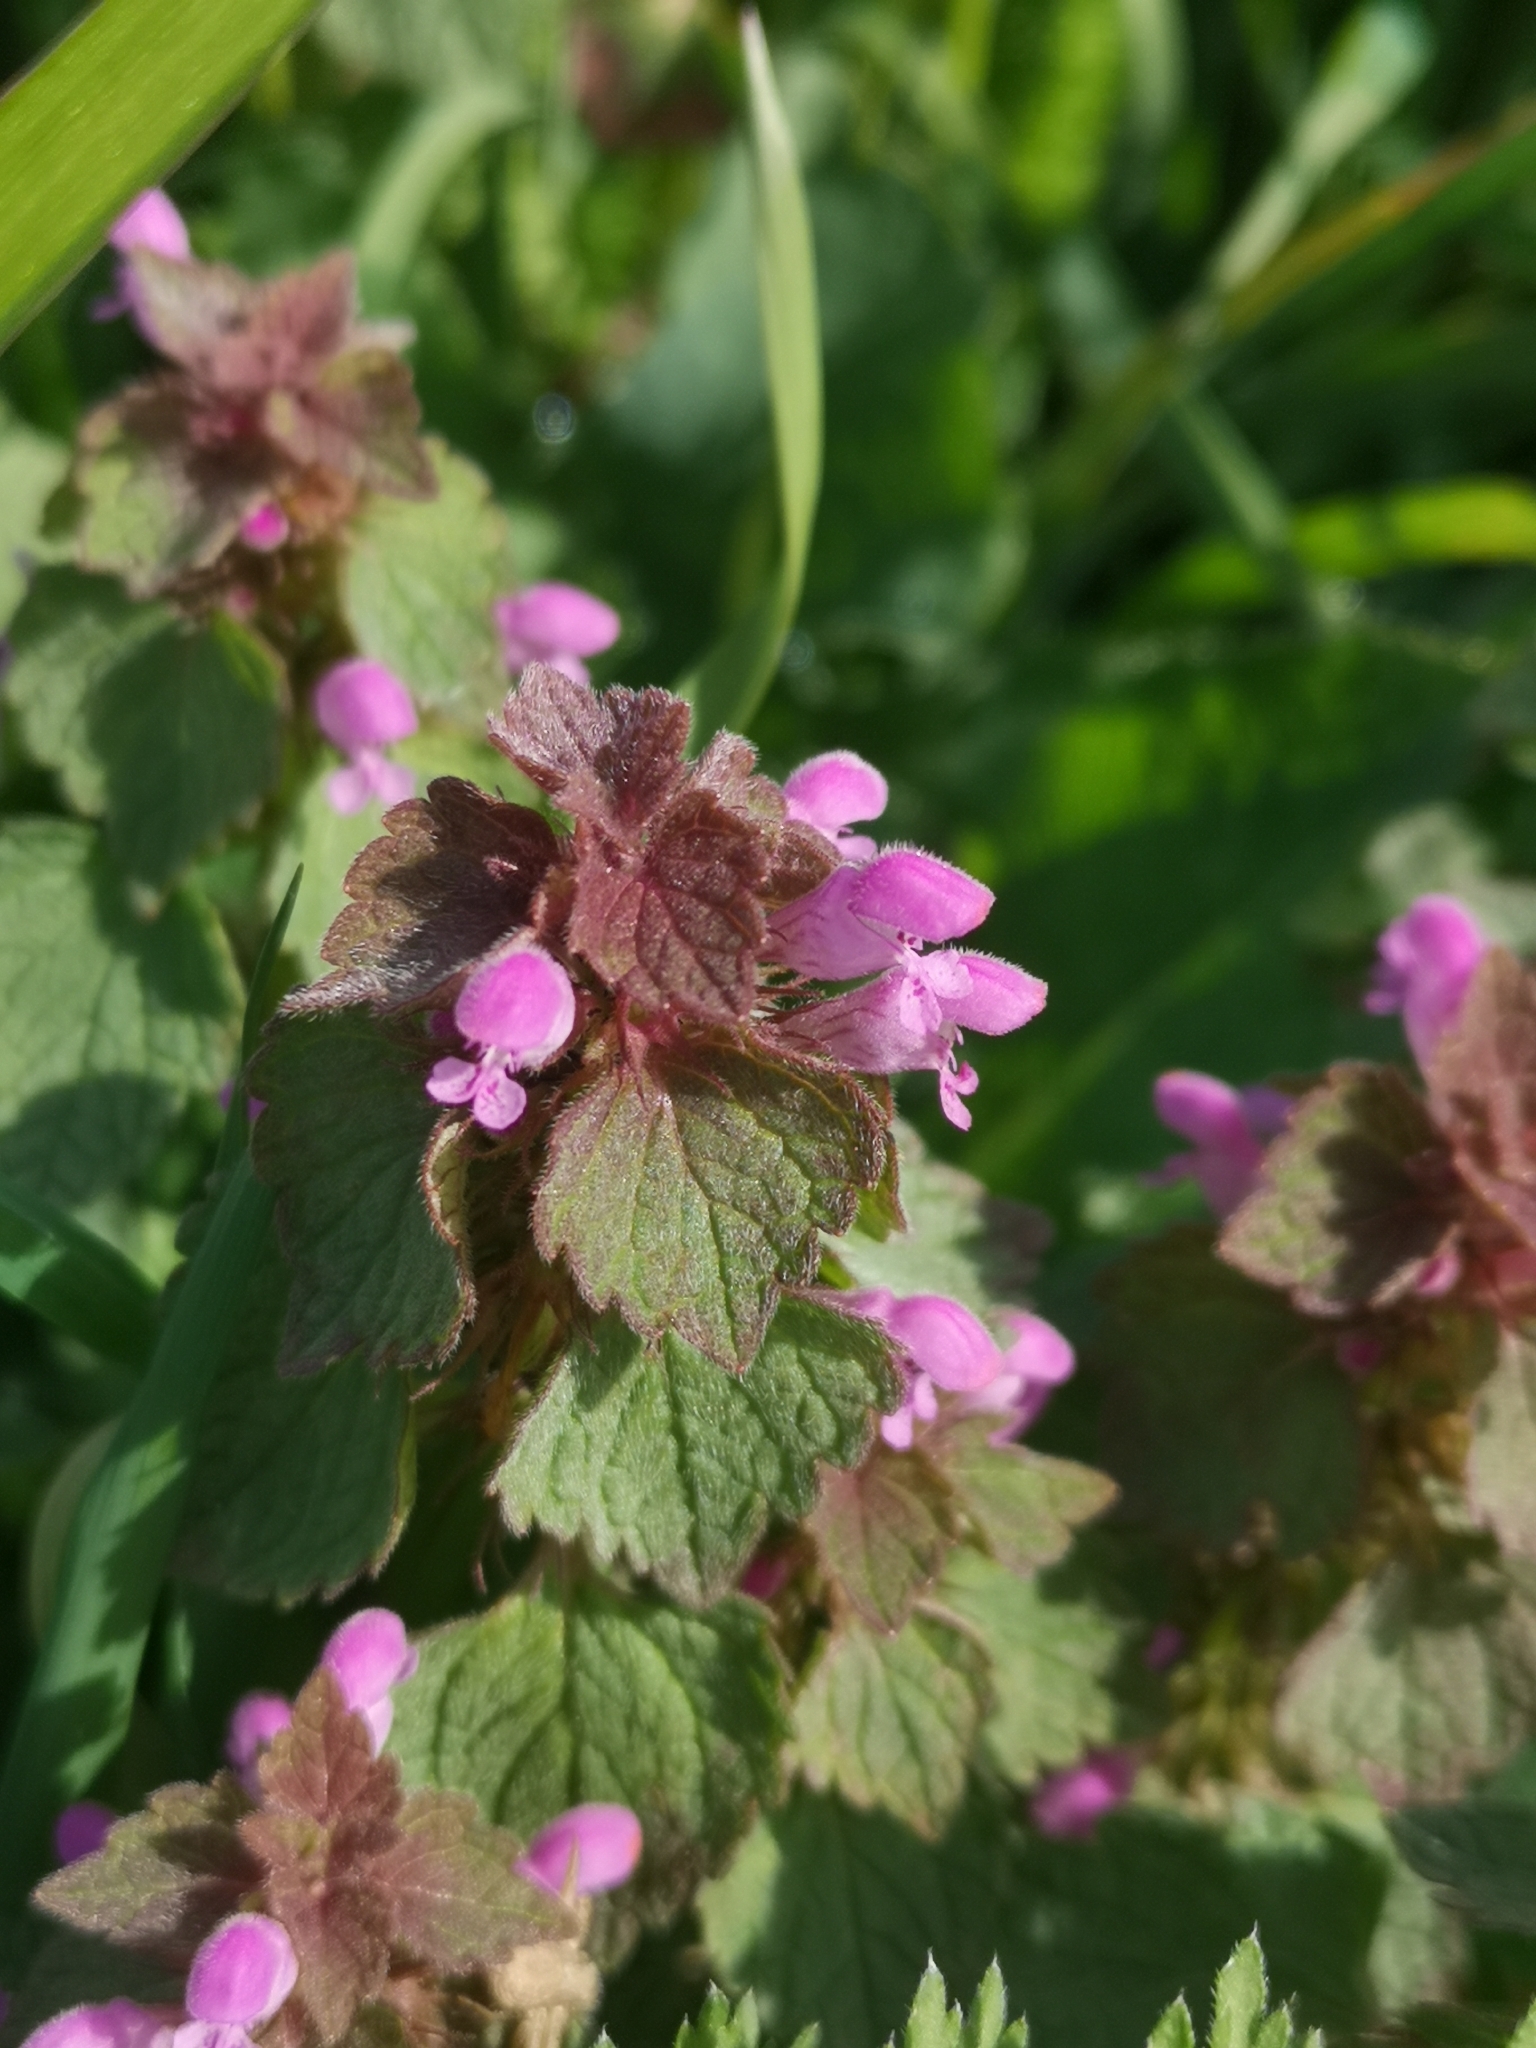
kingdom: Plantae
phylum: Tracheophyta
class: Magnoliopsida
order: Lamiales
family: Lamiaceae
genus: Lamium
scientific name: Lamium purpureum
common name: Red dead-nettle
